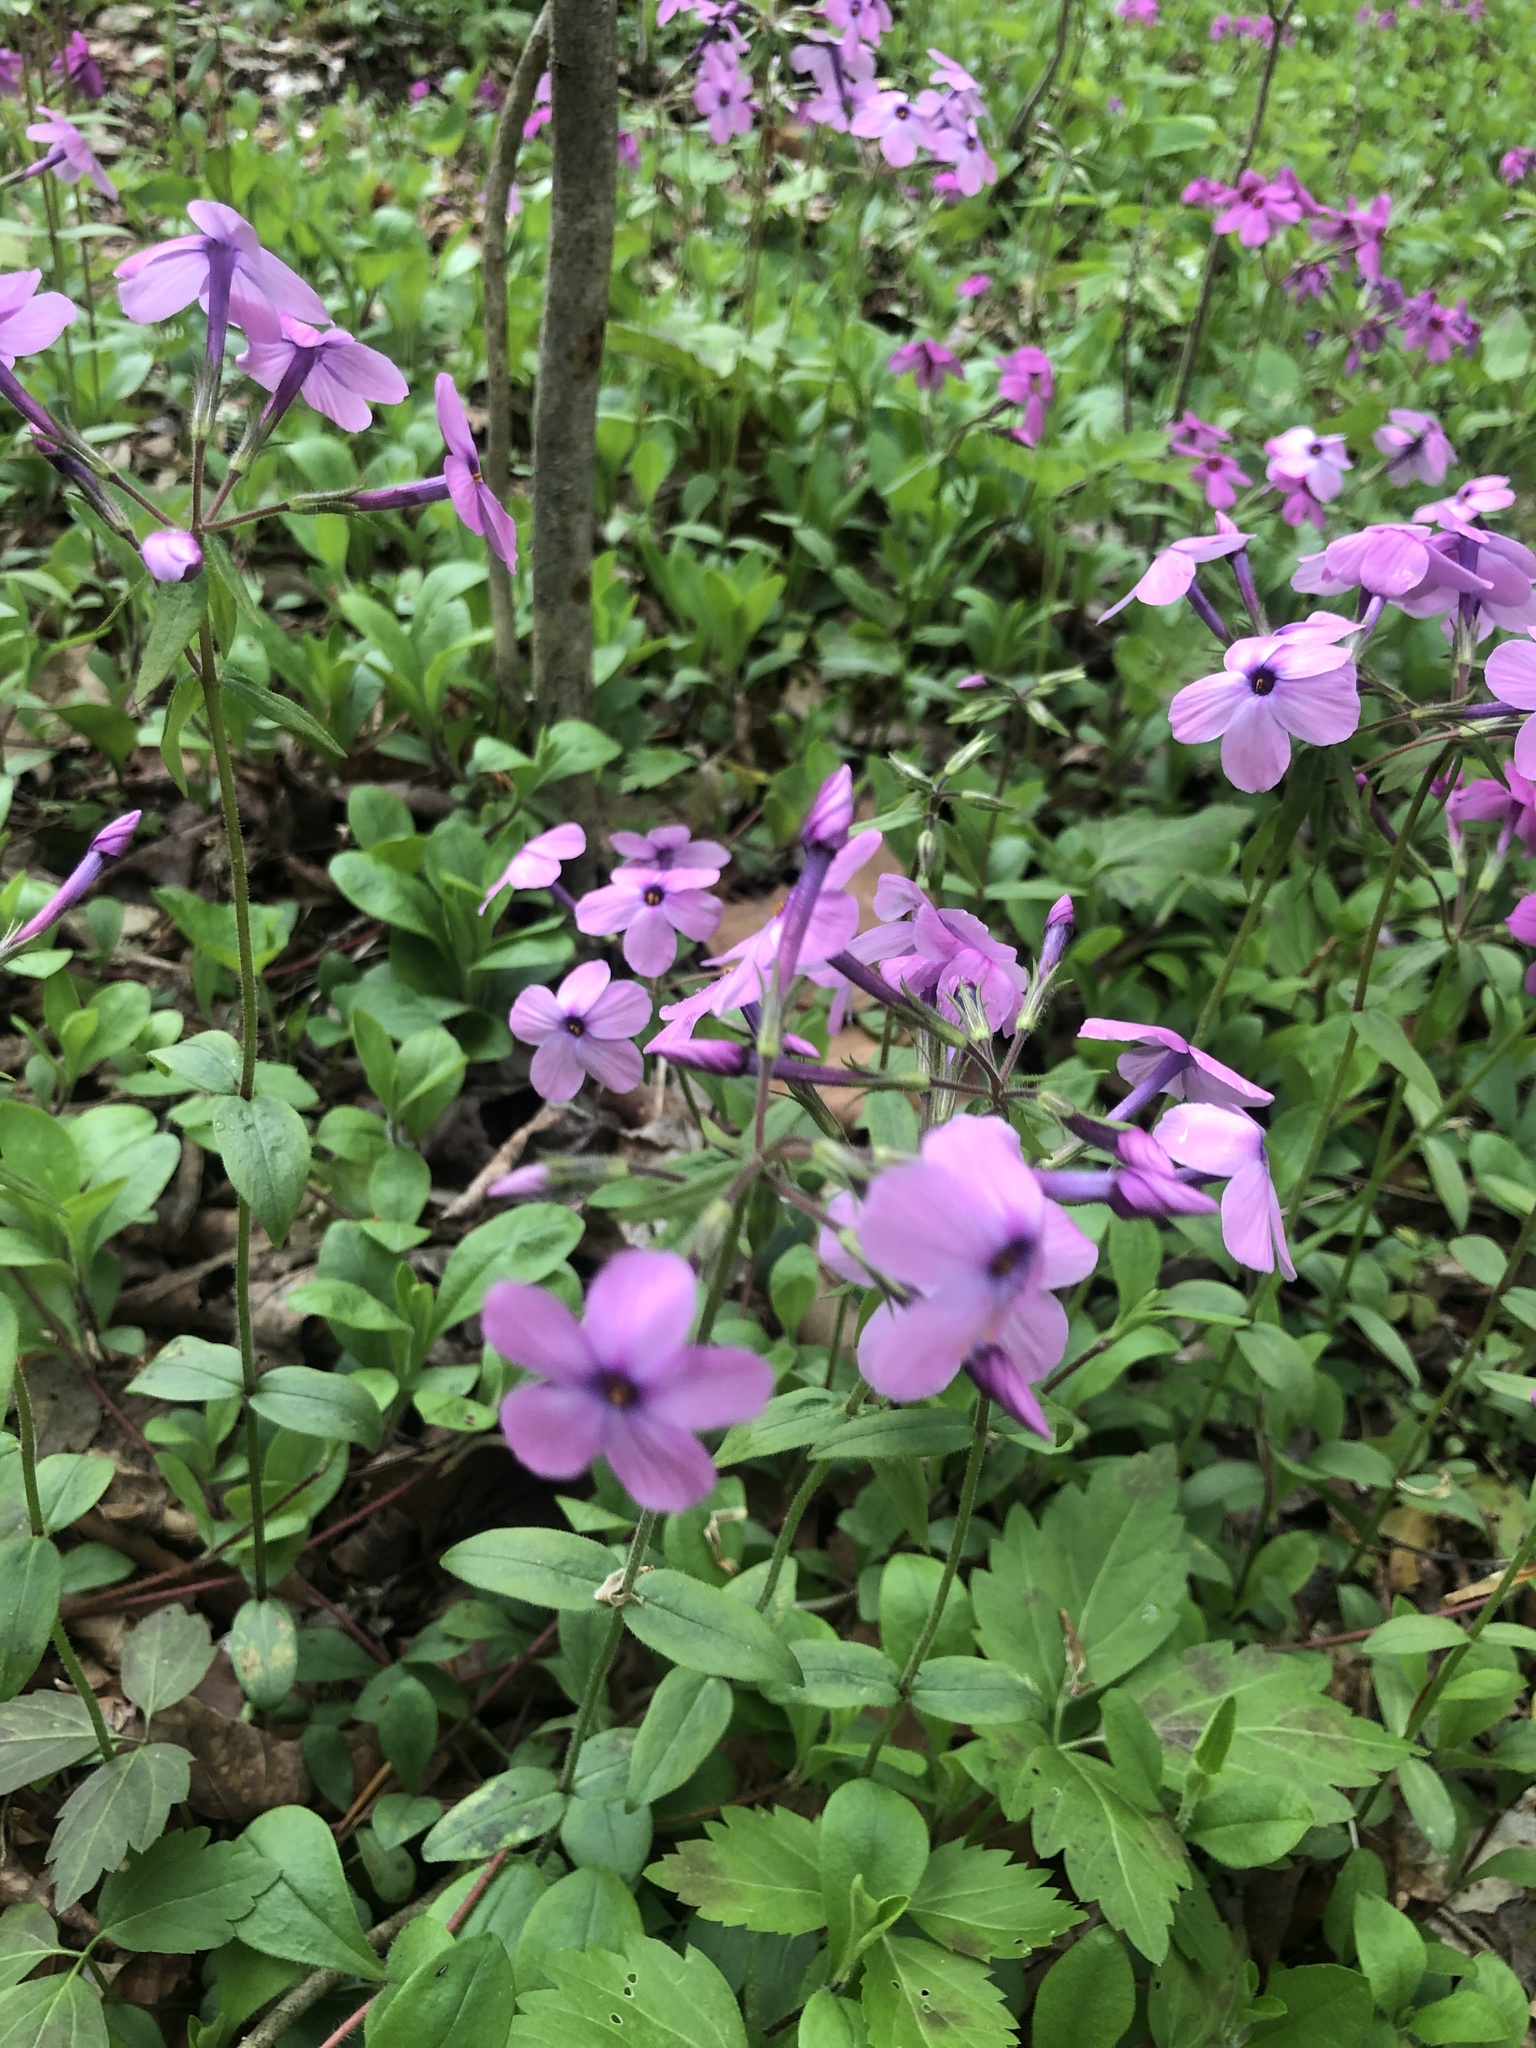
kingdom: Plantae
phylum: Tracheophyta
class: Magnoliopsida
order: Ericales
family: Polemoniaceae
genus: Phlox
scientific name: Phlox stolonifera
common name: Creeping phlox
